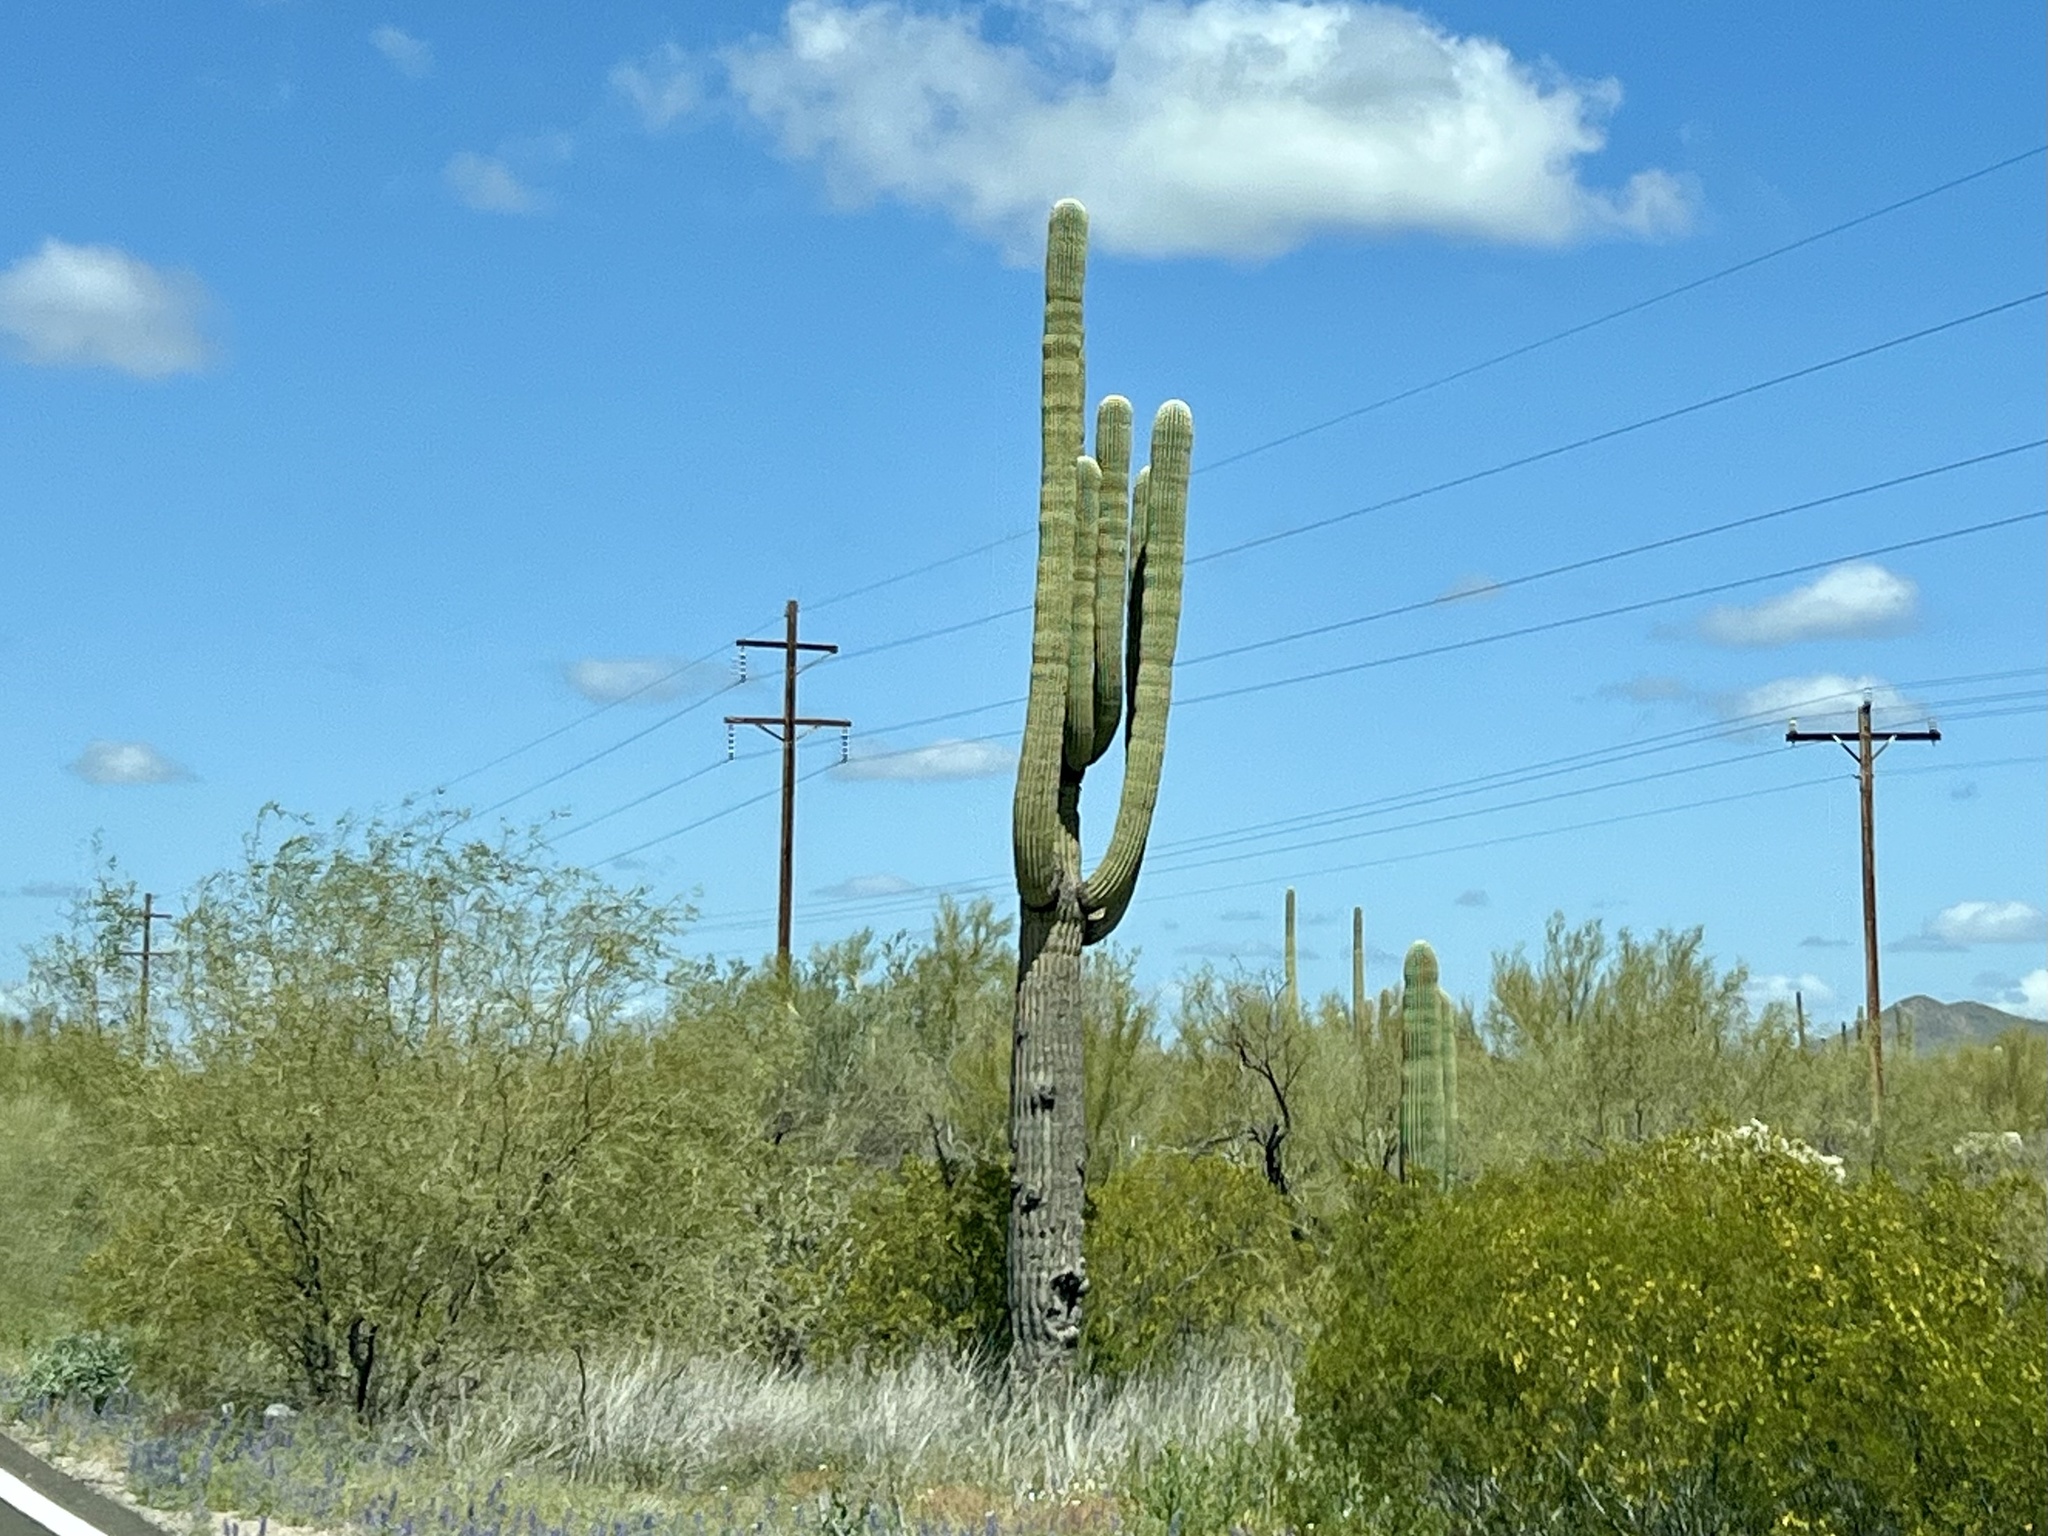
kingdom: Plantae
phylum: Tracheophyta
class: Magnoliopsida
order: Caryophyllales
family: Cactaceae
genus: Carnegiea
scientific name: Carnegiea gigantea
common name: Saguaro
